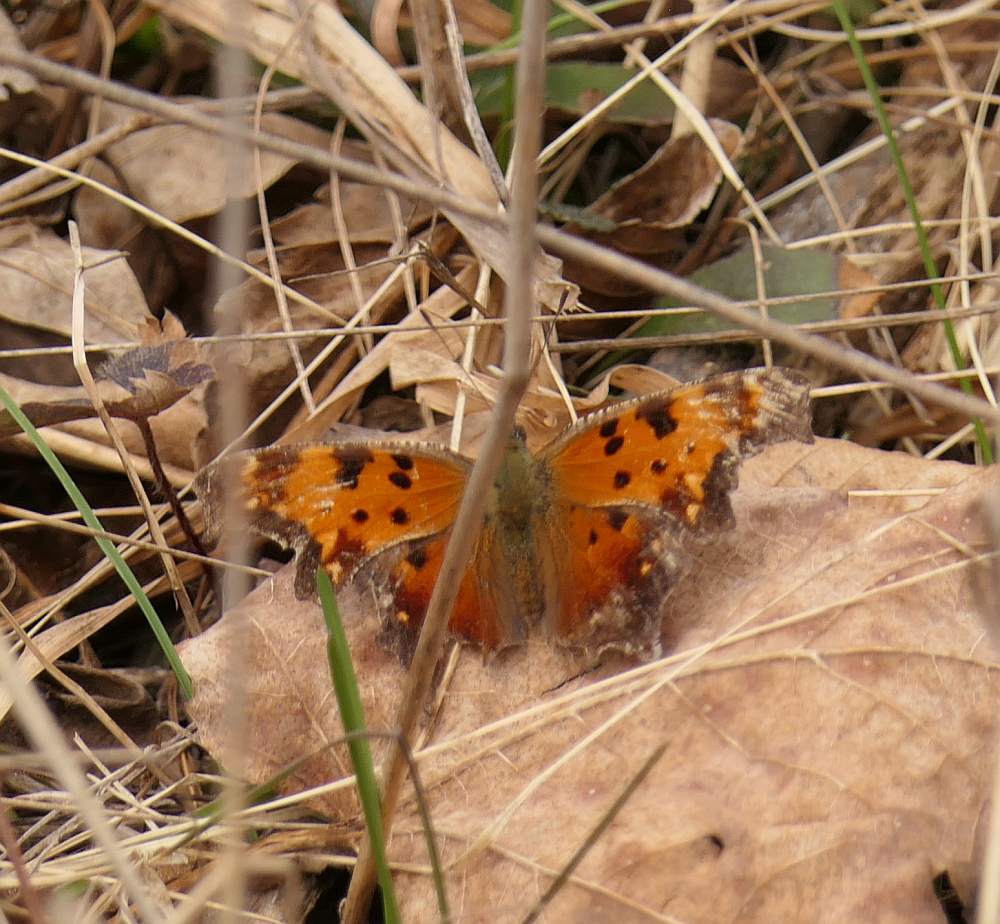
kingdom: Animalia
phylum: Arthropoda
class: Insecta
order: Lepidoptera
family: Nymphalidae
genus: Polygonia
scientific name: Polygonia progne
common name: Gray comma
